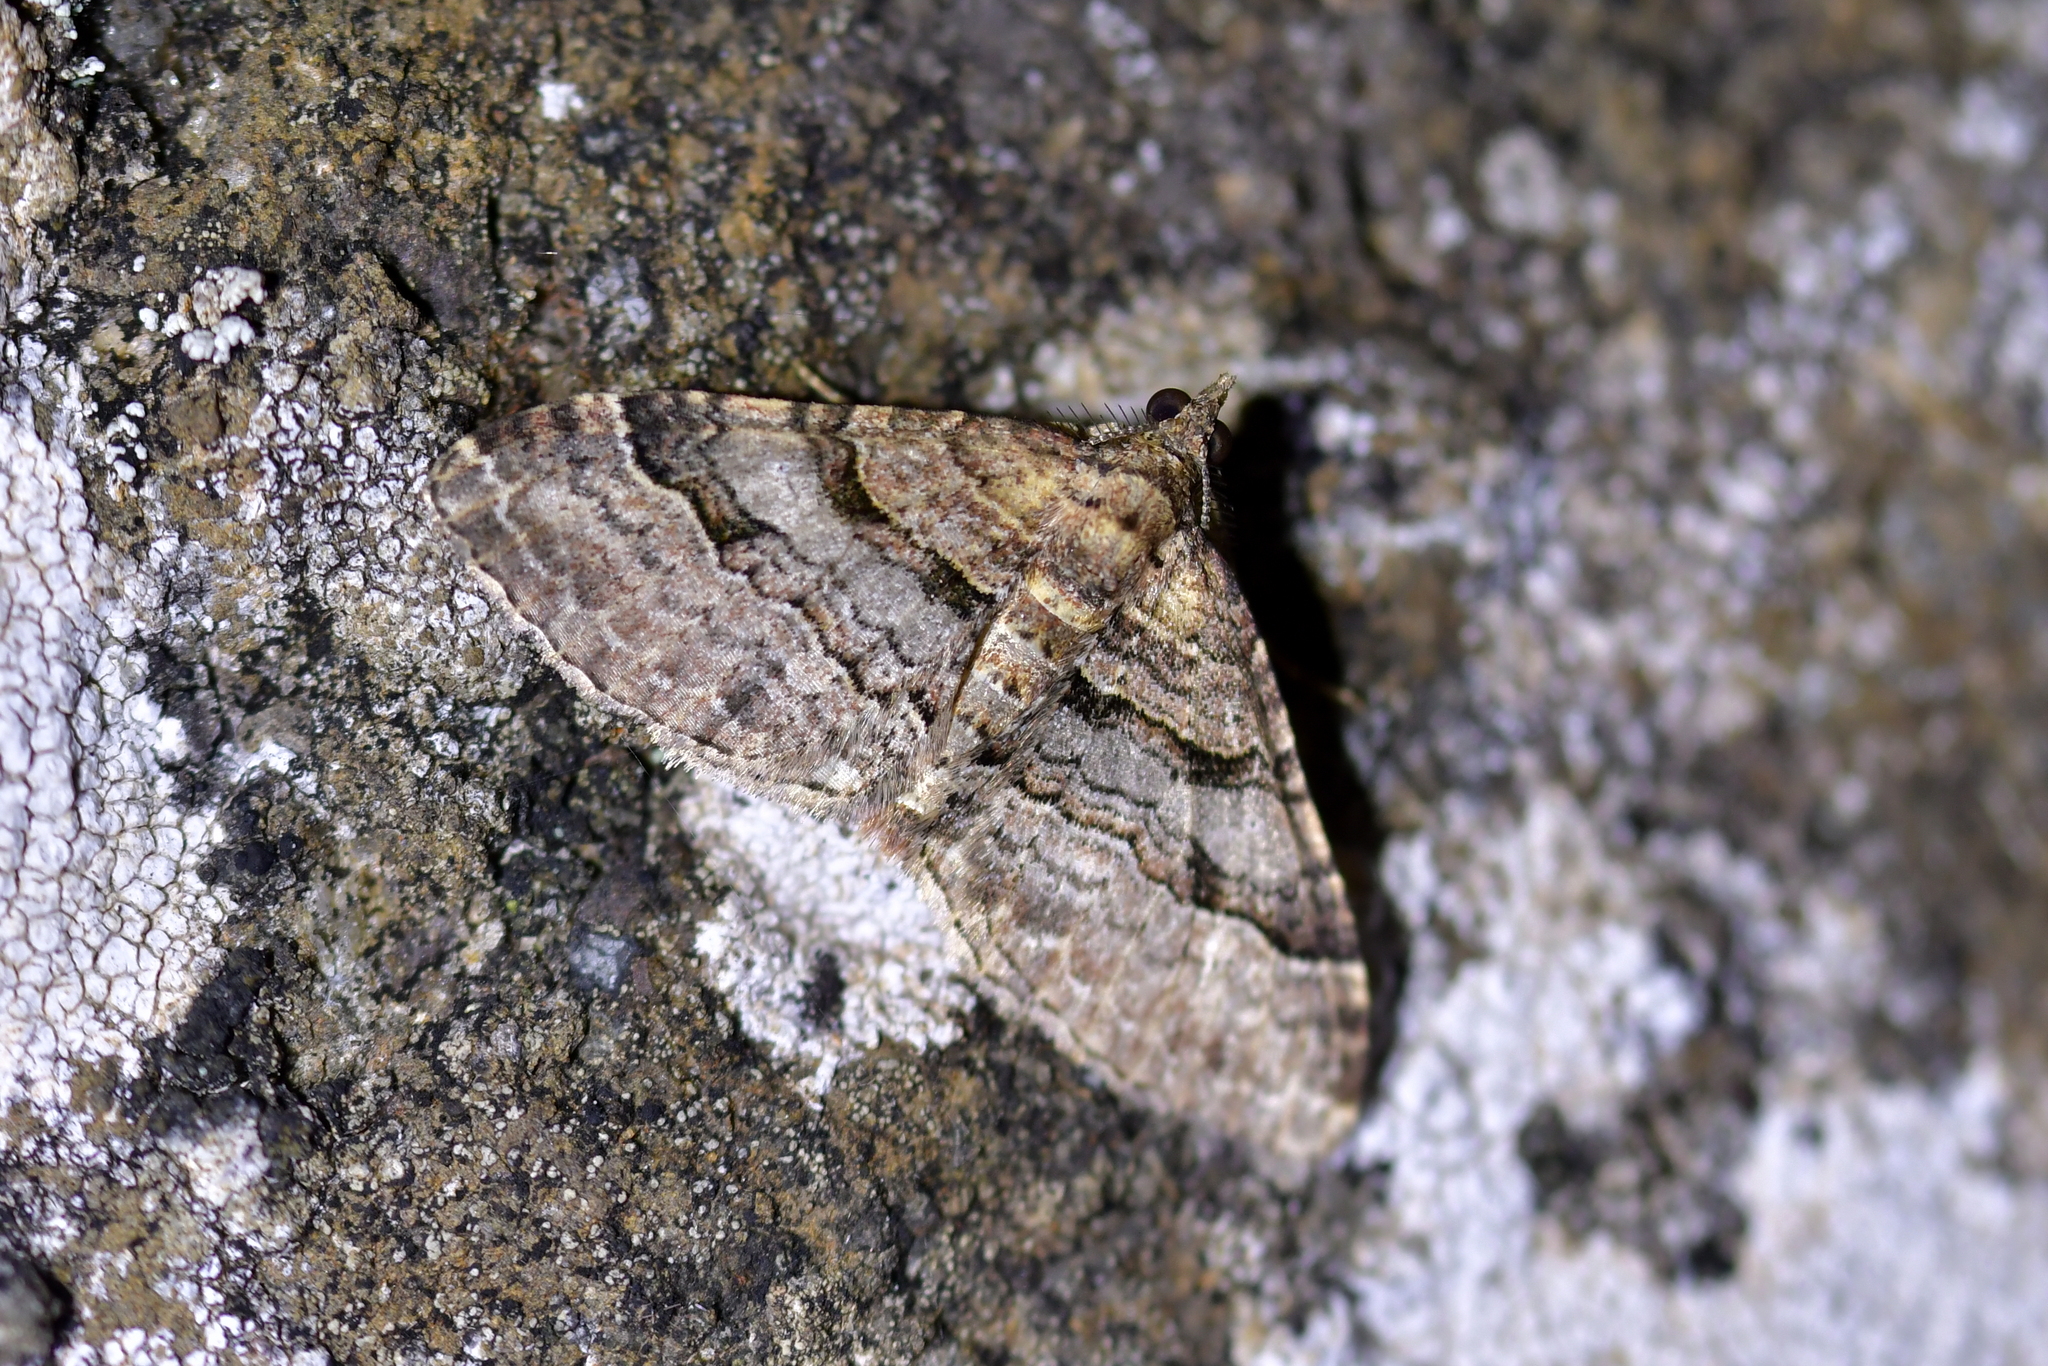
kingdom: Animalia
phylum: Arthropoda
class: Insecta
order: Lepidoptera
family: Geometridae
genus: Epyaxa
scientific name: Epyaxa lucidata
